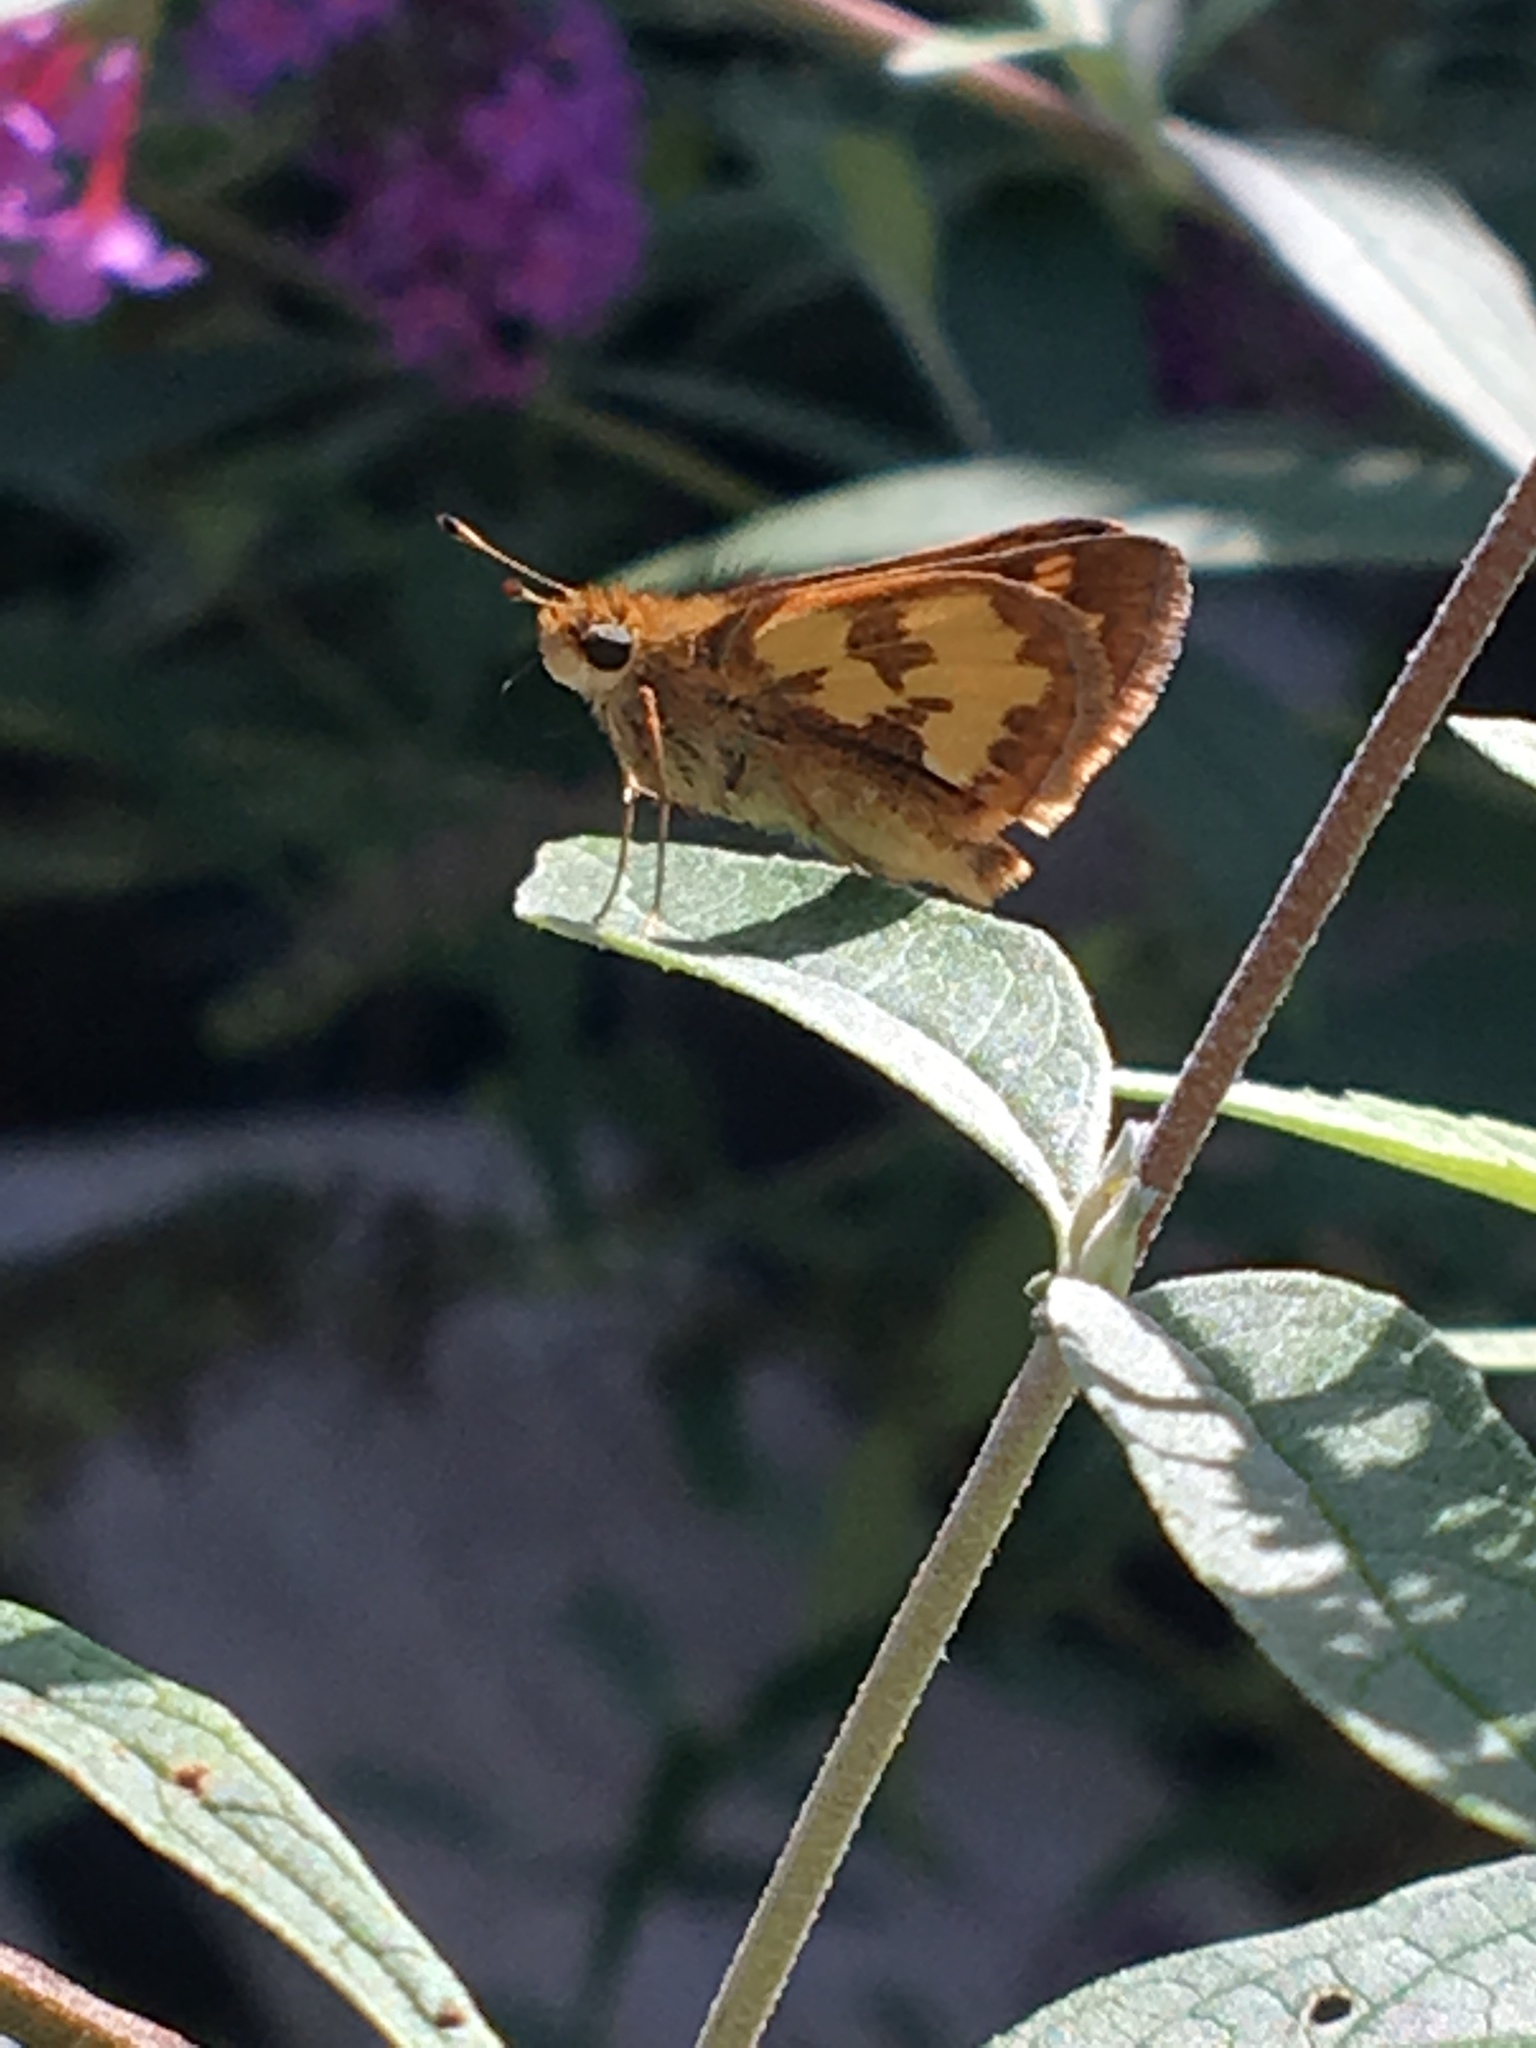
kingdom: Animalia
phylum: Arthropoda
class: Insecta
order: Lepidoptera
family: Hesperiidae
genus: Polites
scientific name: Polites coras
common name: Peck's skipper
